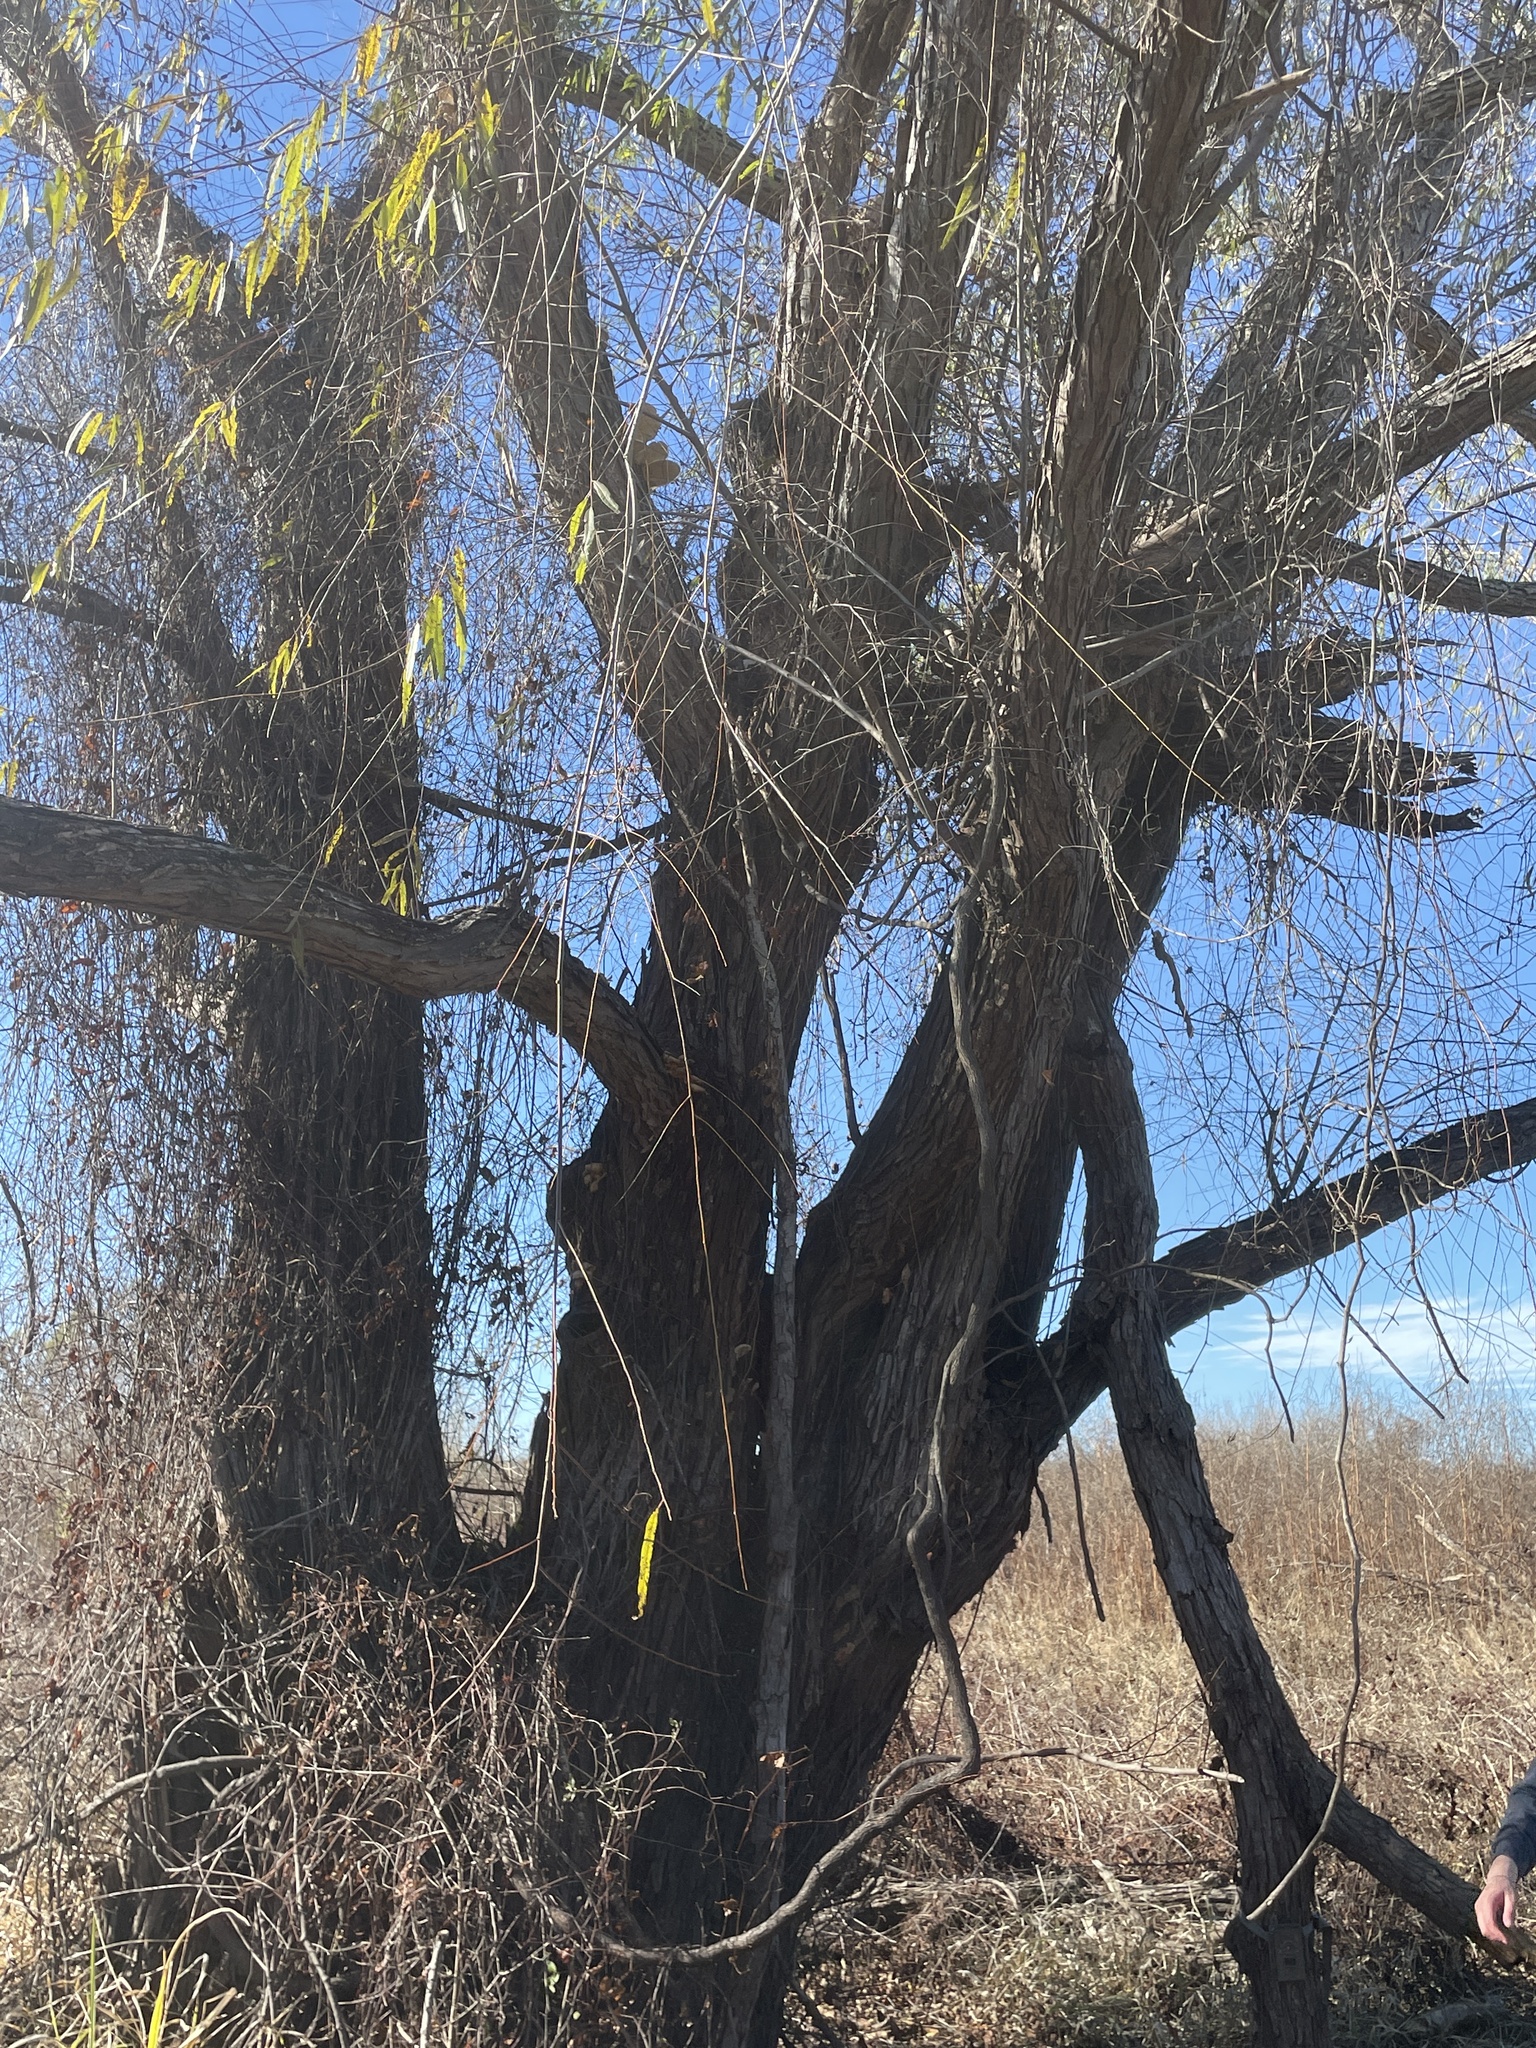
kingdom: Plantae
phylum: Tracheophyta
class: Magnoliopsida
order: Malpighiales
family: Salicaceae
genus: Salix
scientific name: Salix nigra
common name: Black willow
